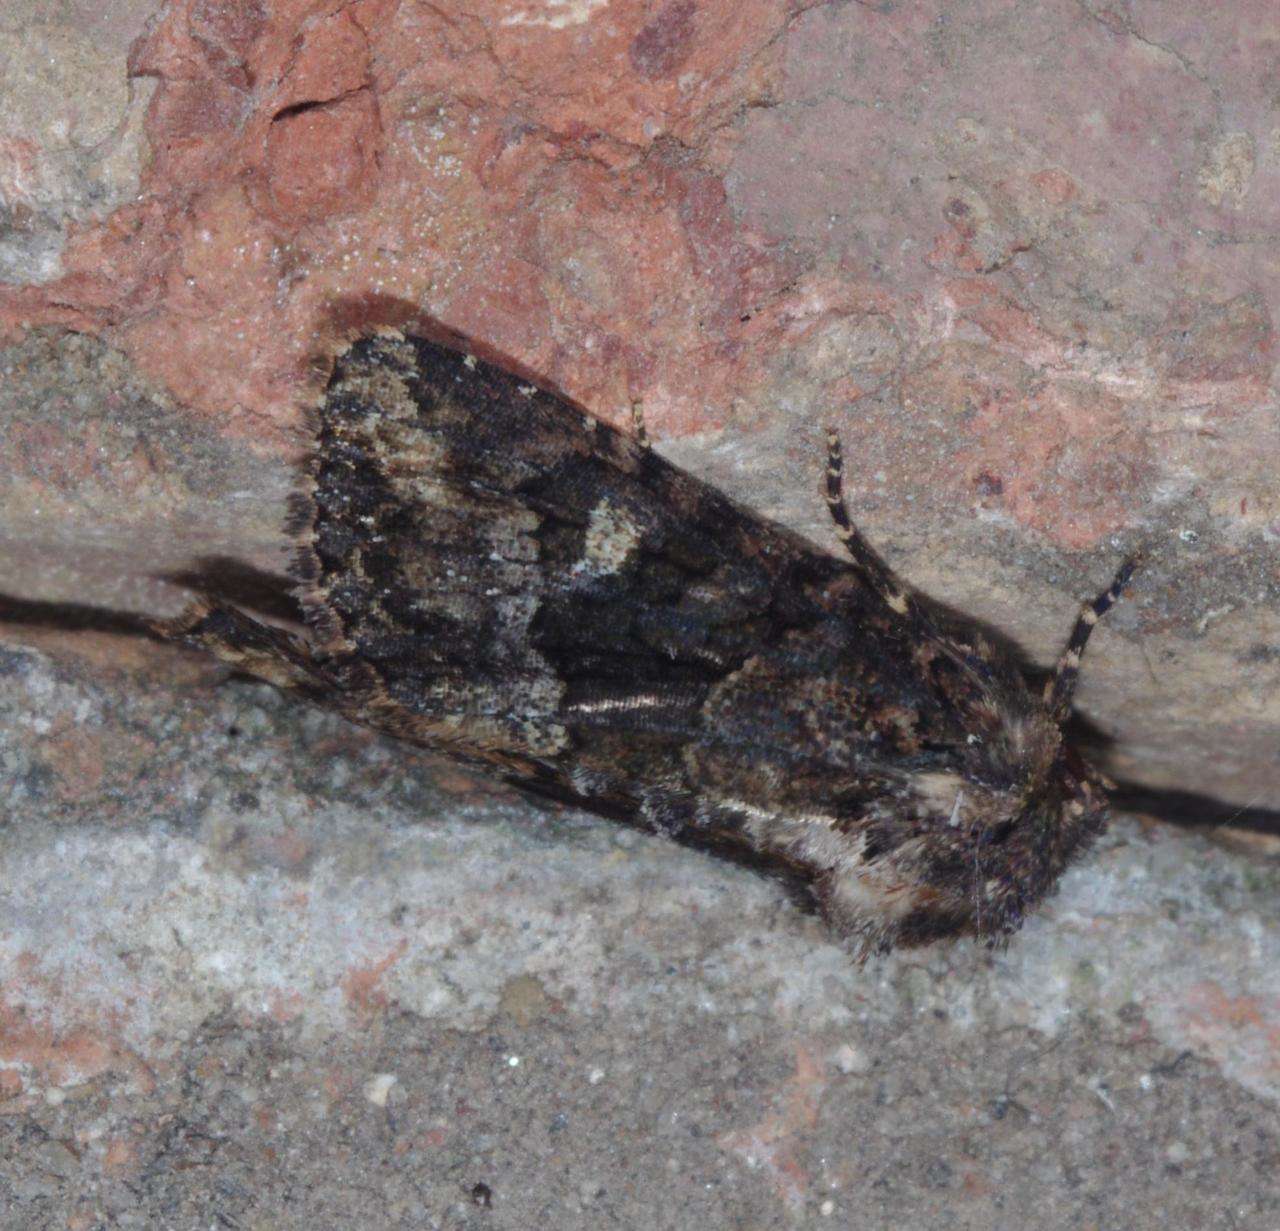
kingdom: Animalia
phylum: Arthropoda
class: Insecta
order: Lepidoptera
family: Noctuidae
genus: Neumichtis
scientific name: Neumichtis saliaris
